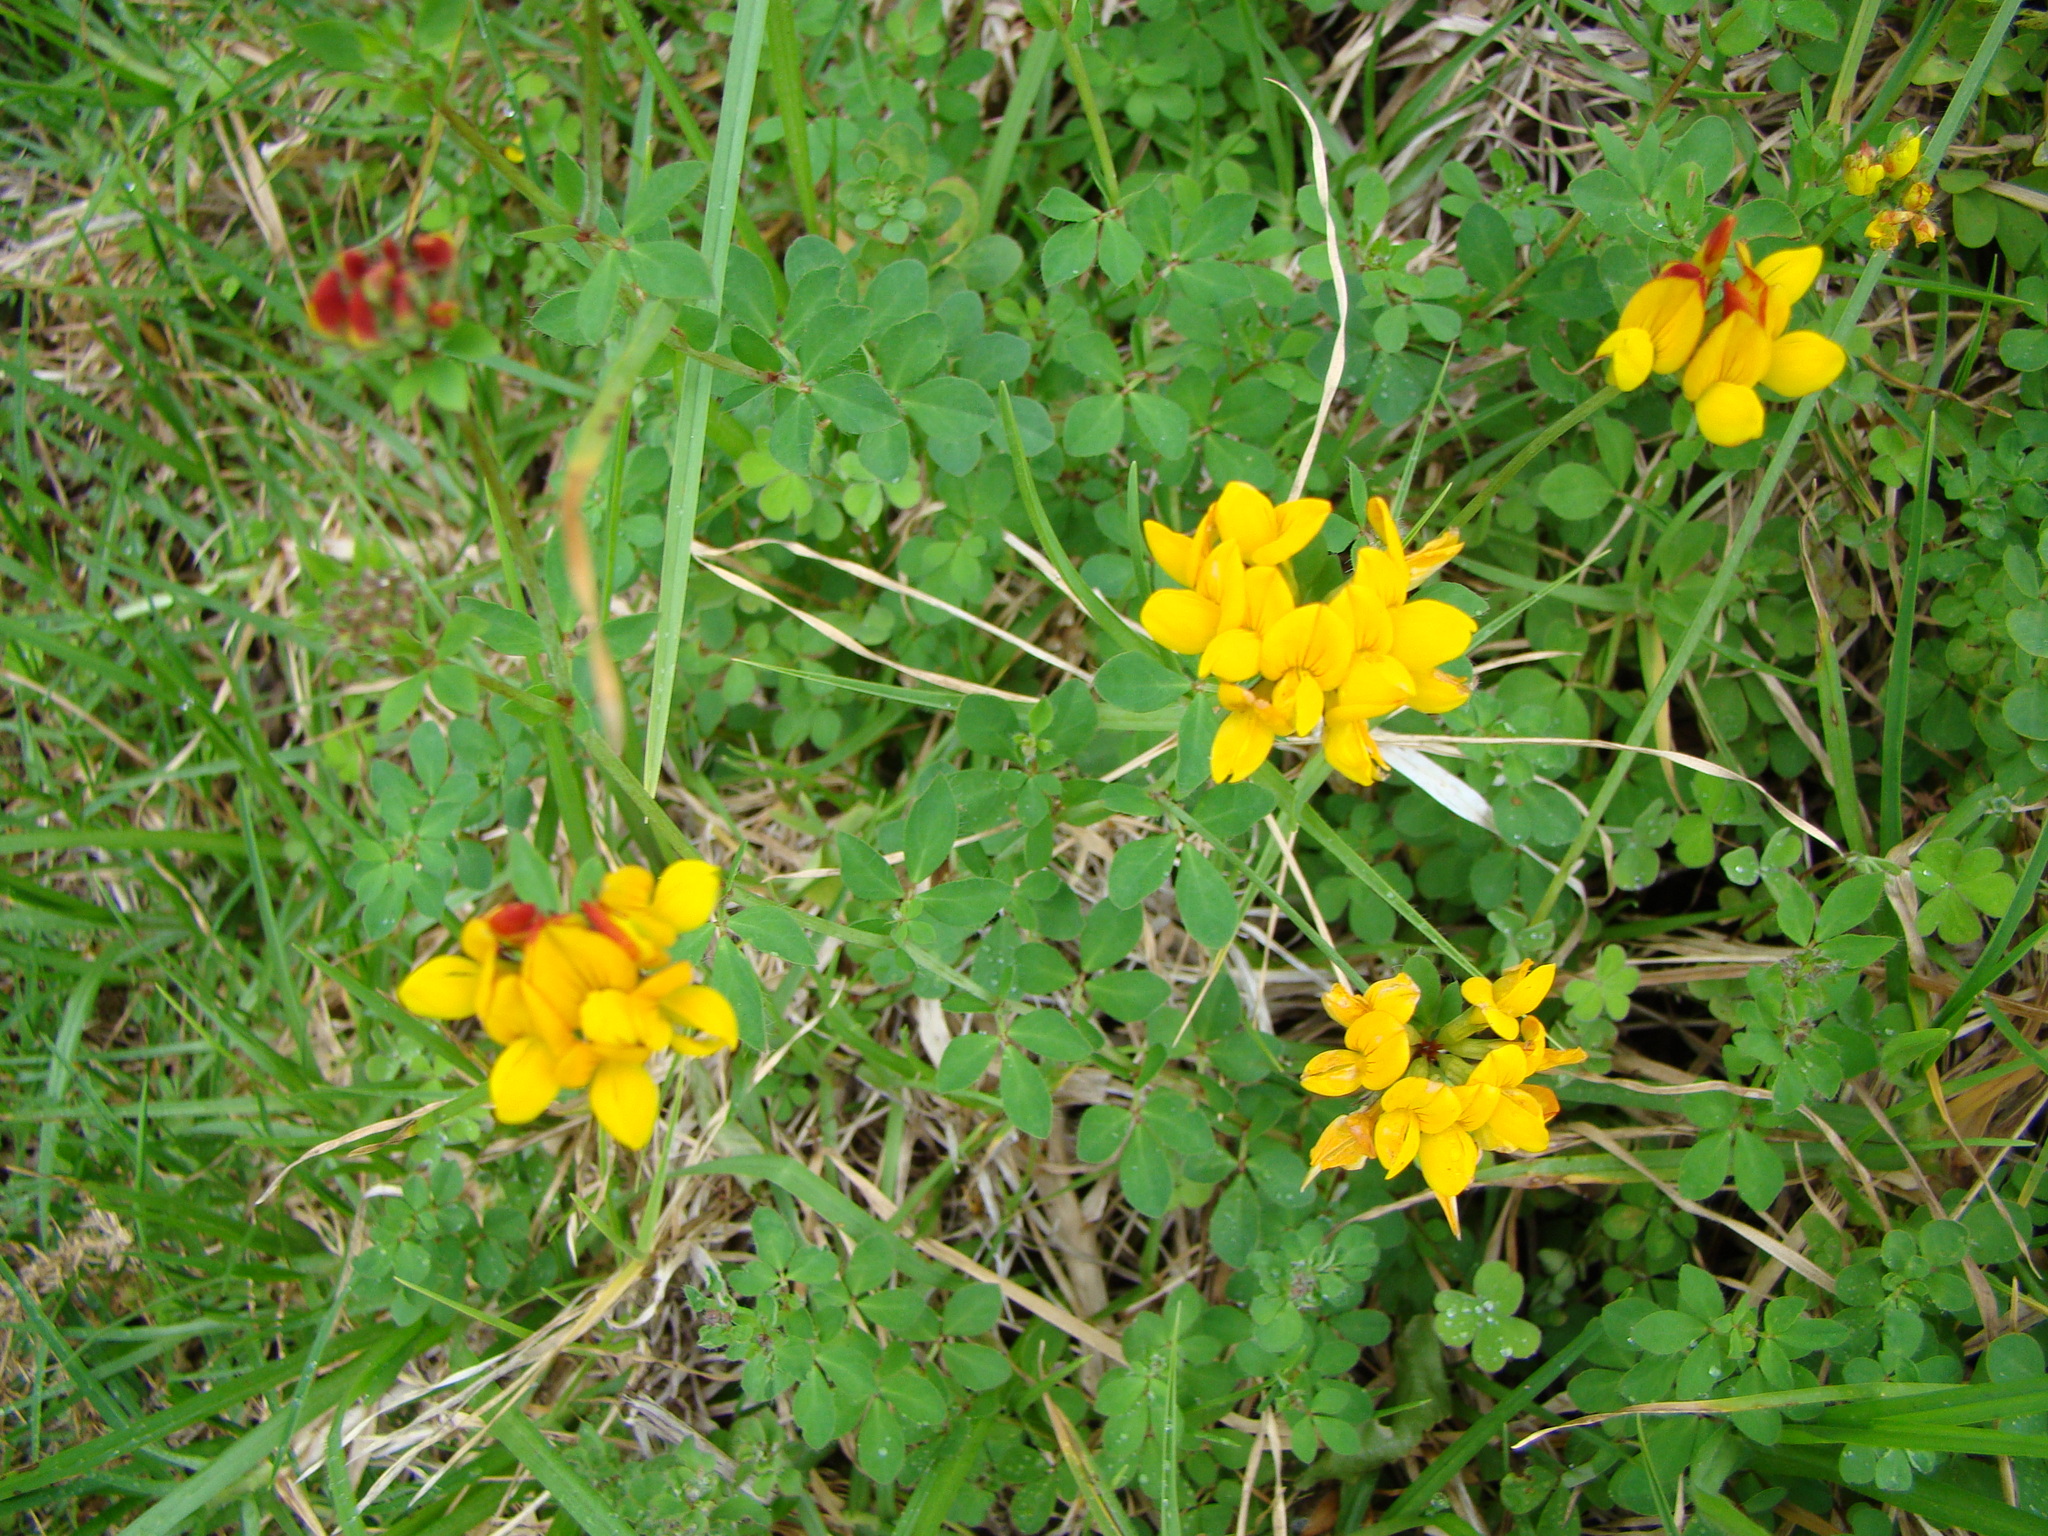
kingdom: Plantae
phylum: Tracheophyta
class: Magnoliopsida
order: Fabales
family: Fabaceae
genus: Lotus
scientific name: Lotus pedunculatus
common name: Greater birdsfoot-trefoil
